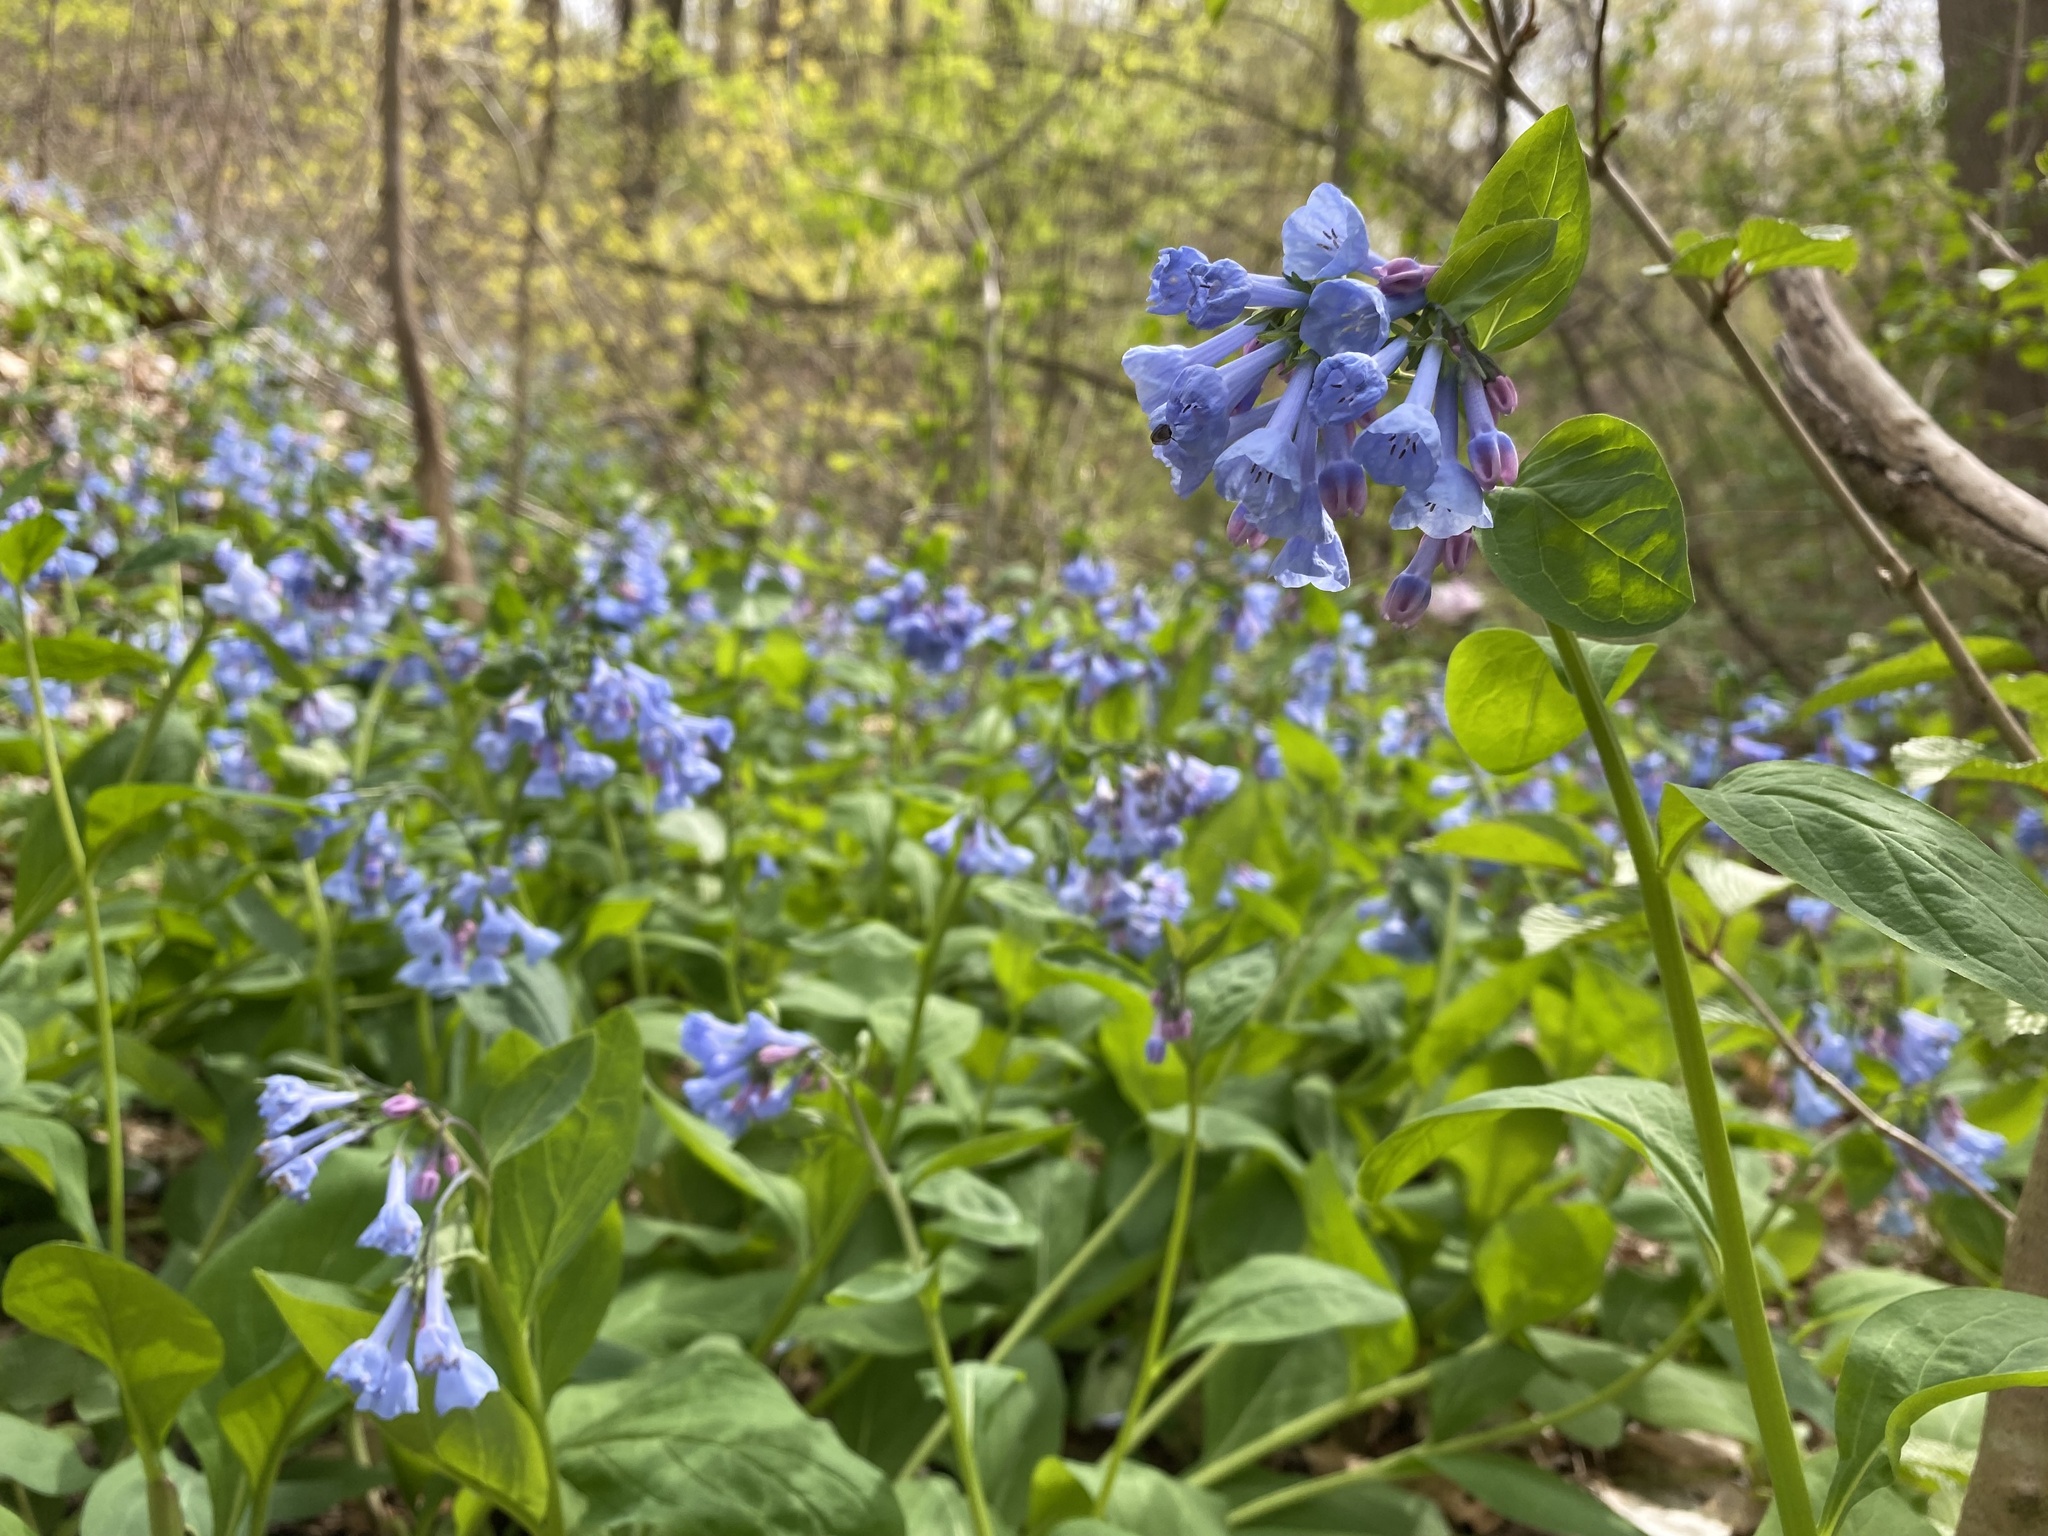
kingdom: Plantae
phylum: Tracheophyta
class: Magnoliopsida
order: Boraginales
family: Boraginaceae
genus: Mertensia
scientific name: Mertensia virginica
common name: Virginia bluebells
